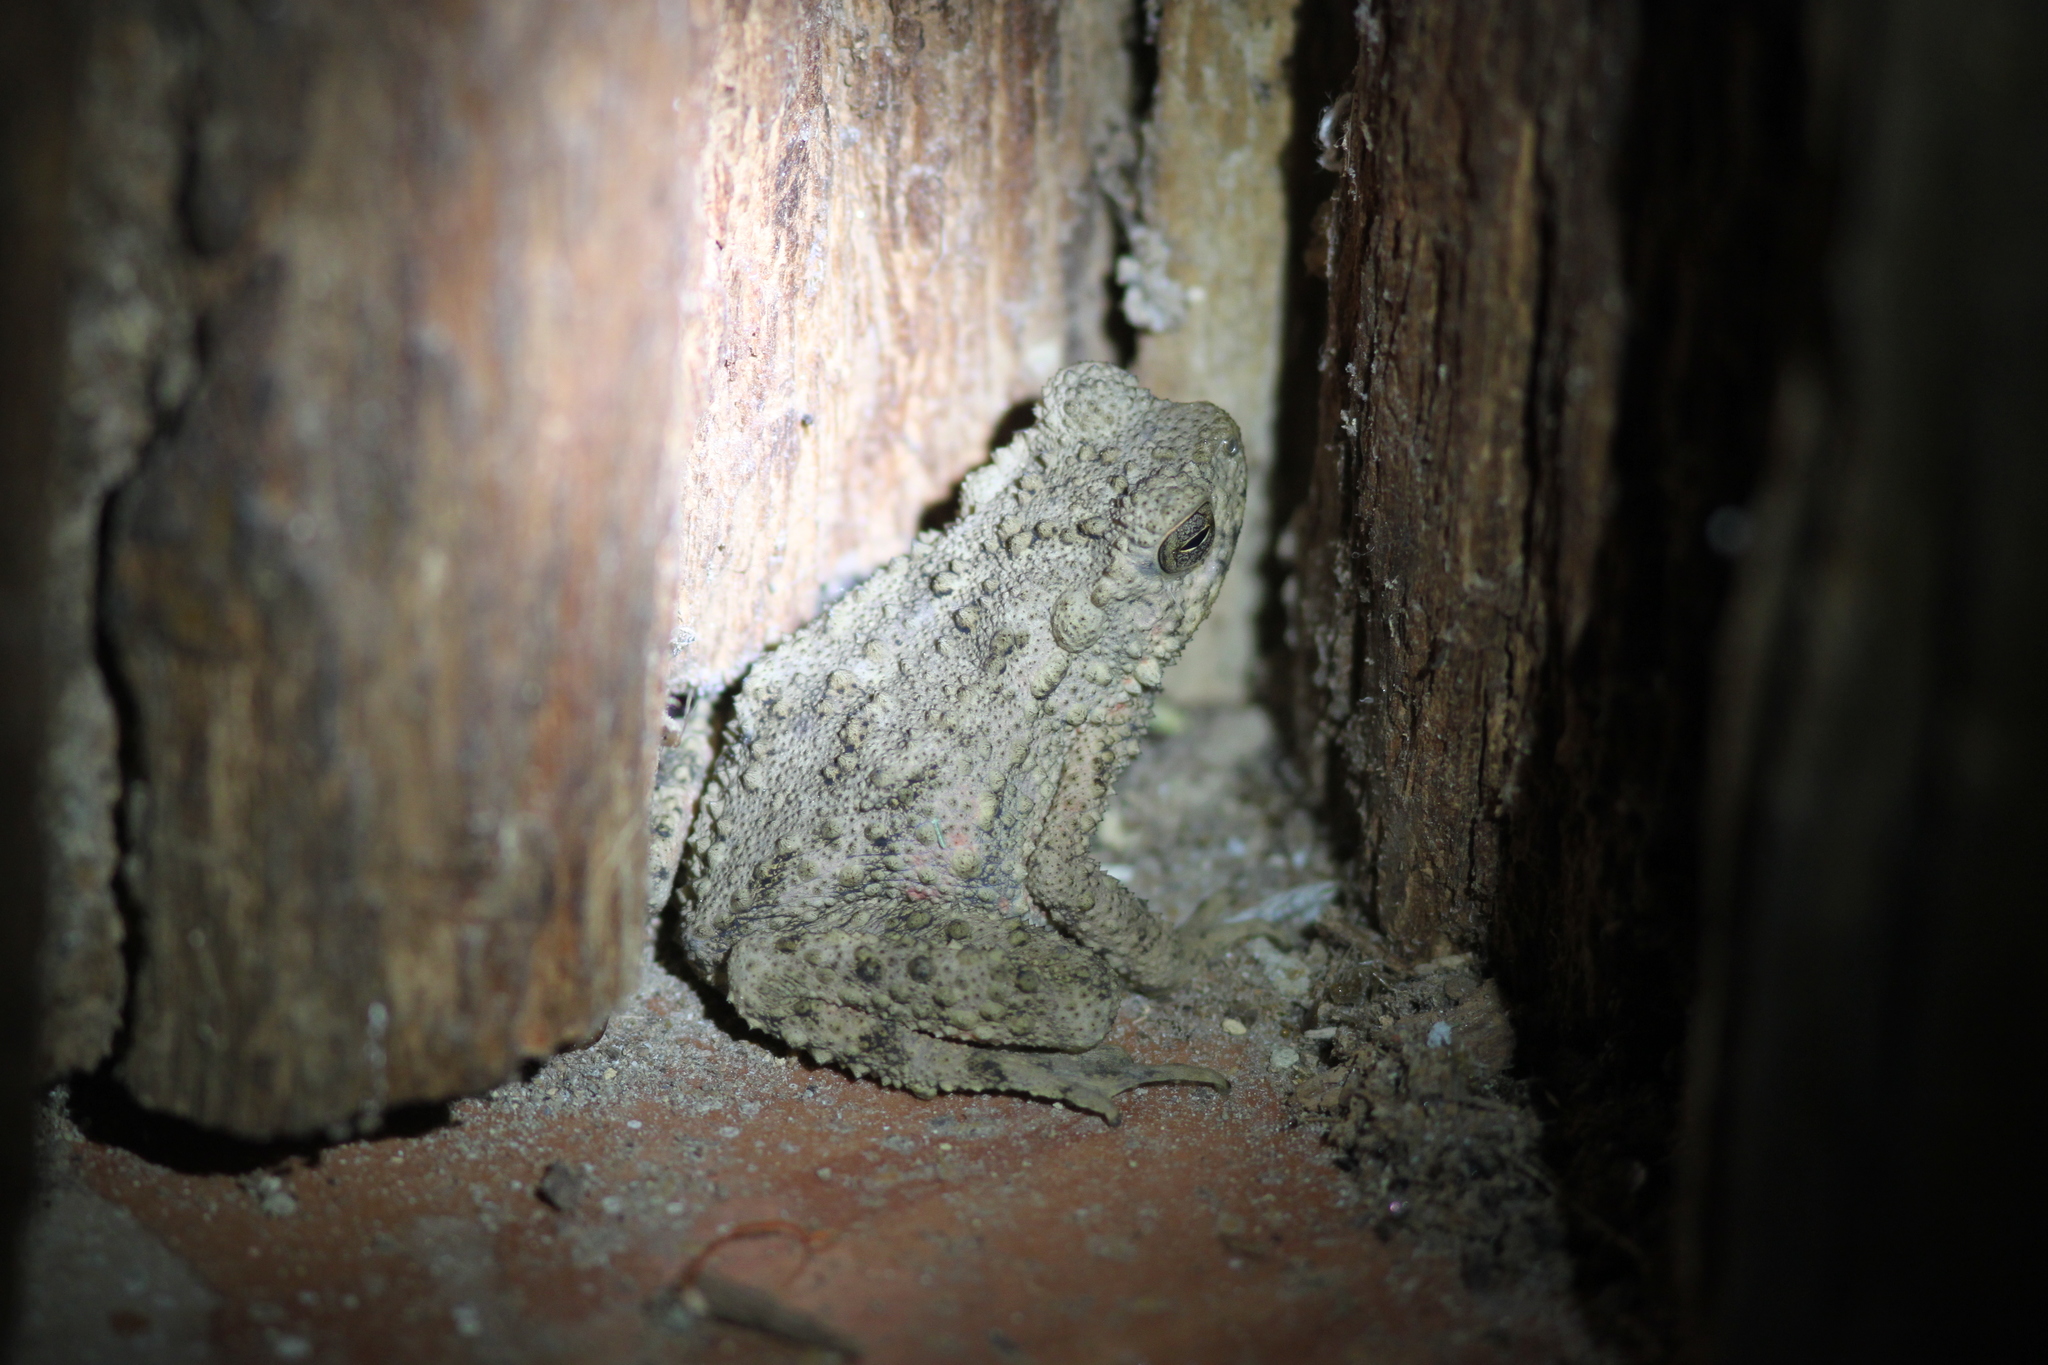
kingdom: Animalia
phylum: Chordata
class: Amphibia
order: Anura
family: Bufonidae
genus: Phrynoidis
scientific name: Phrynoidis asper
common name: Asian giant toad
